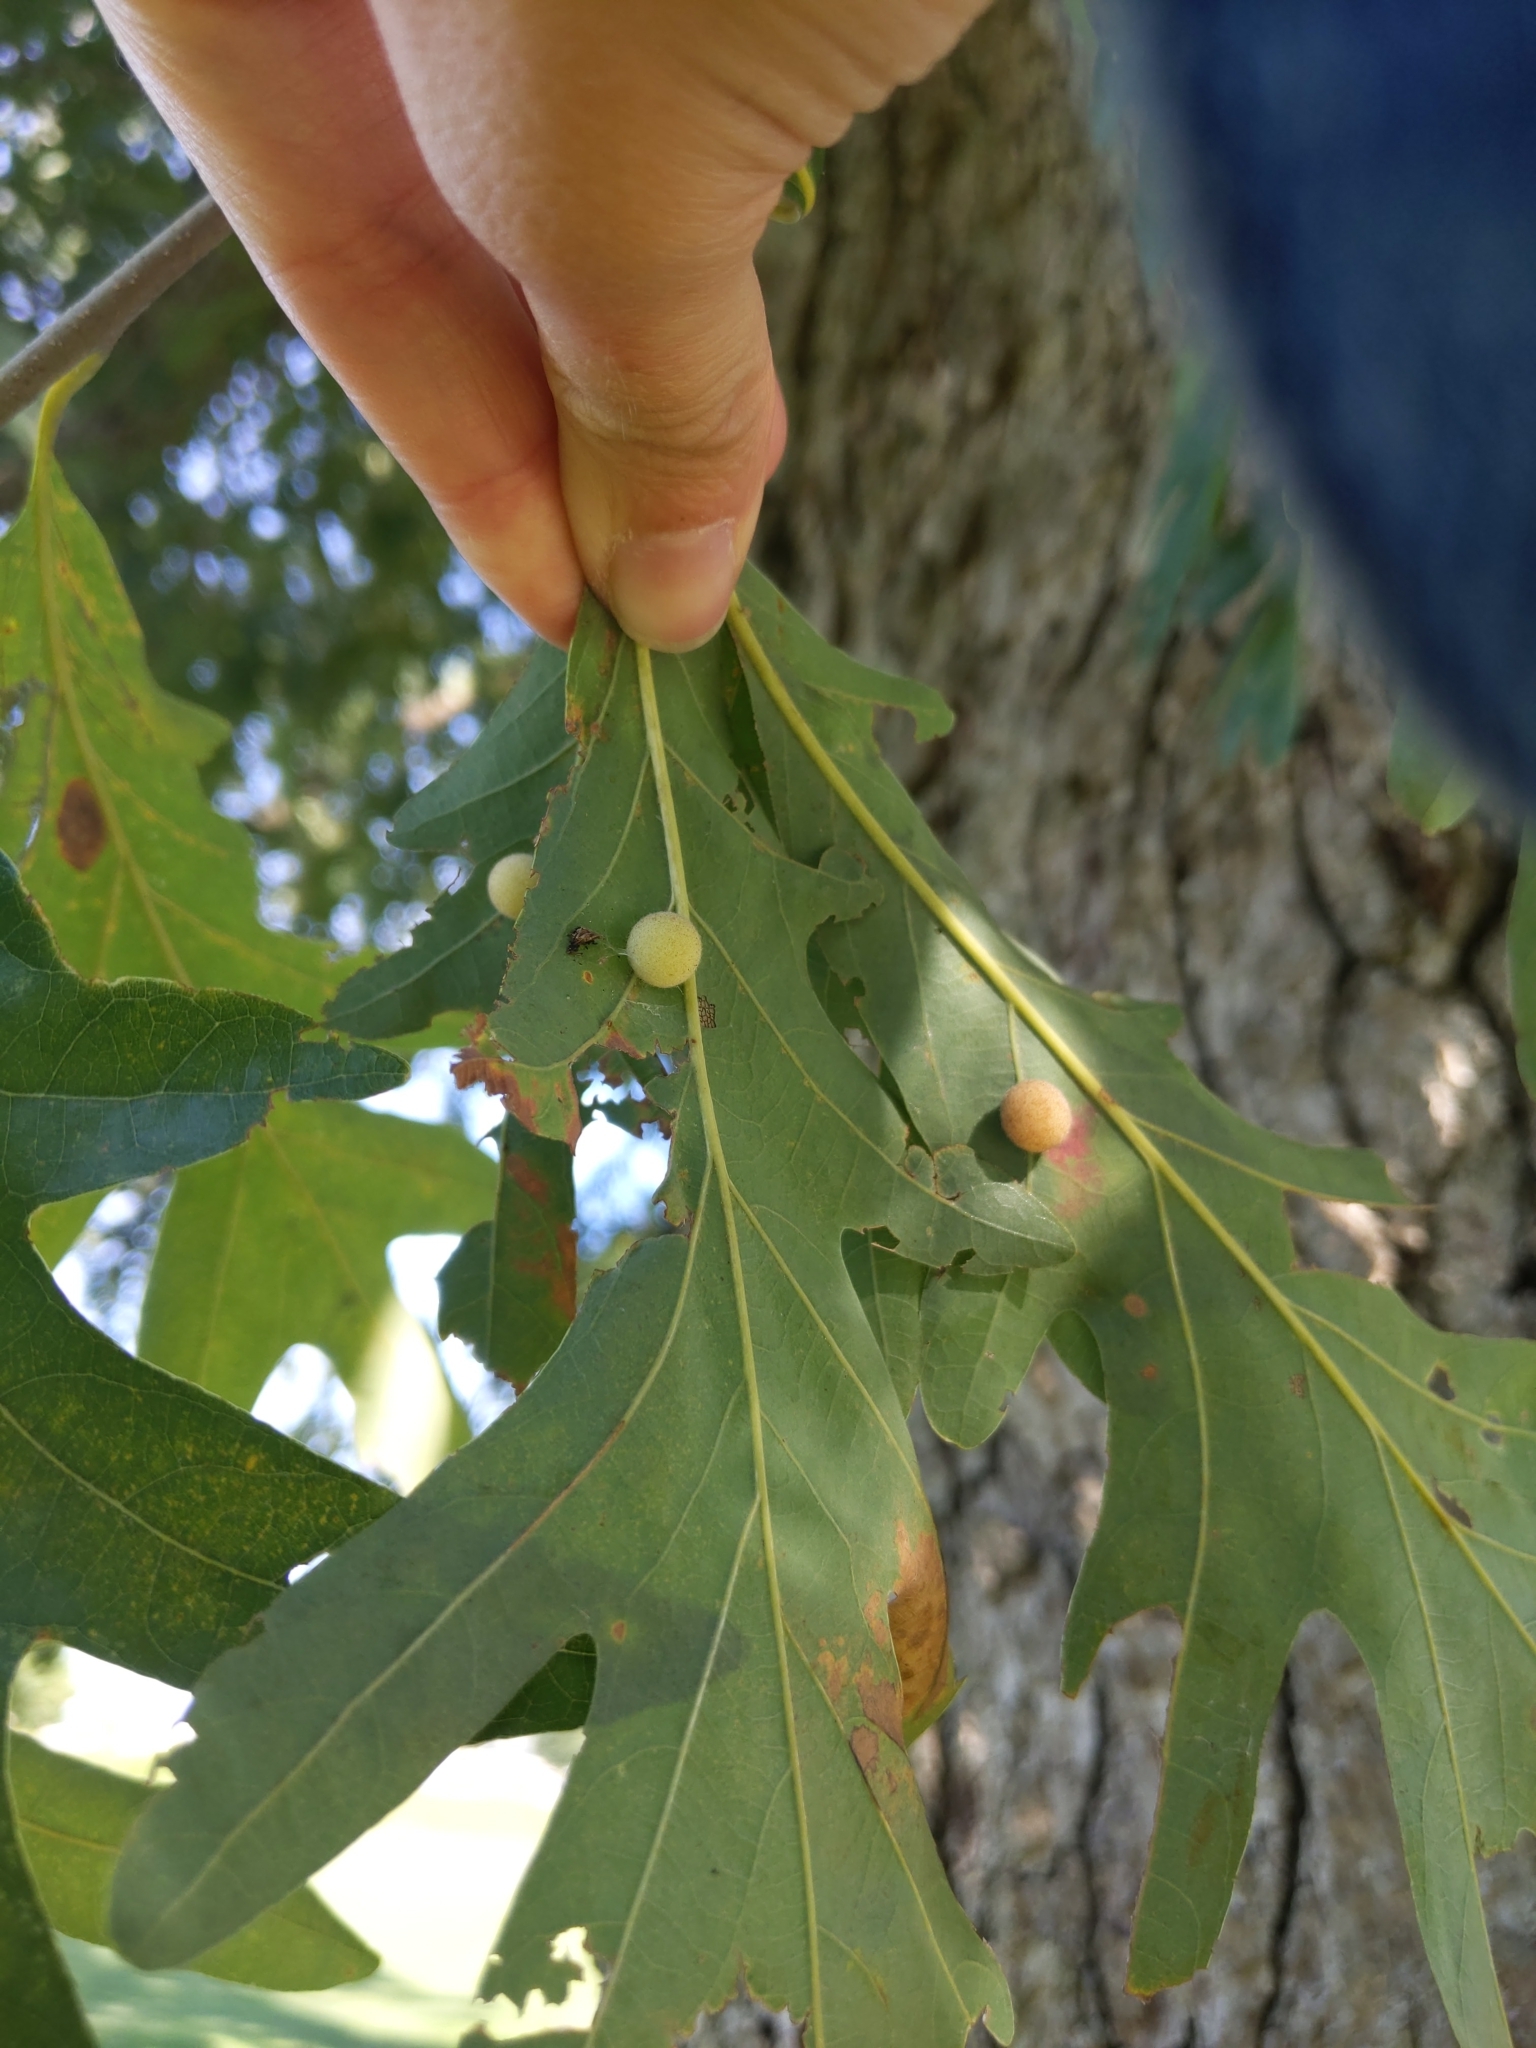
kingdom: Animalia
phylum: Arthropoda
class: Insecta
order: Hymenoptera
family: Cynipidae
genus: Philonix
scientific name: Philonix fulvicollis
